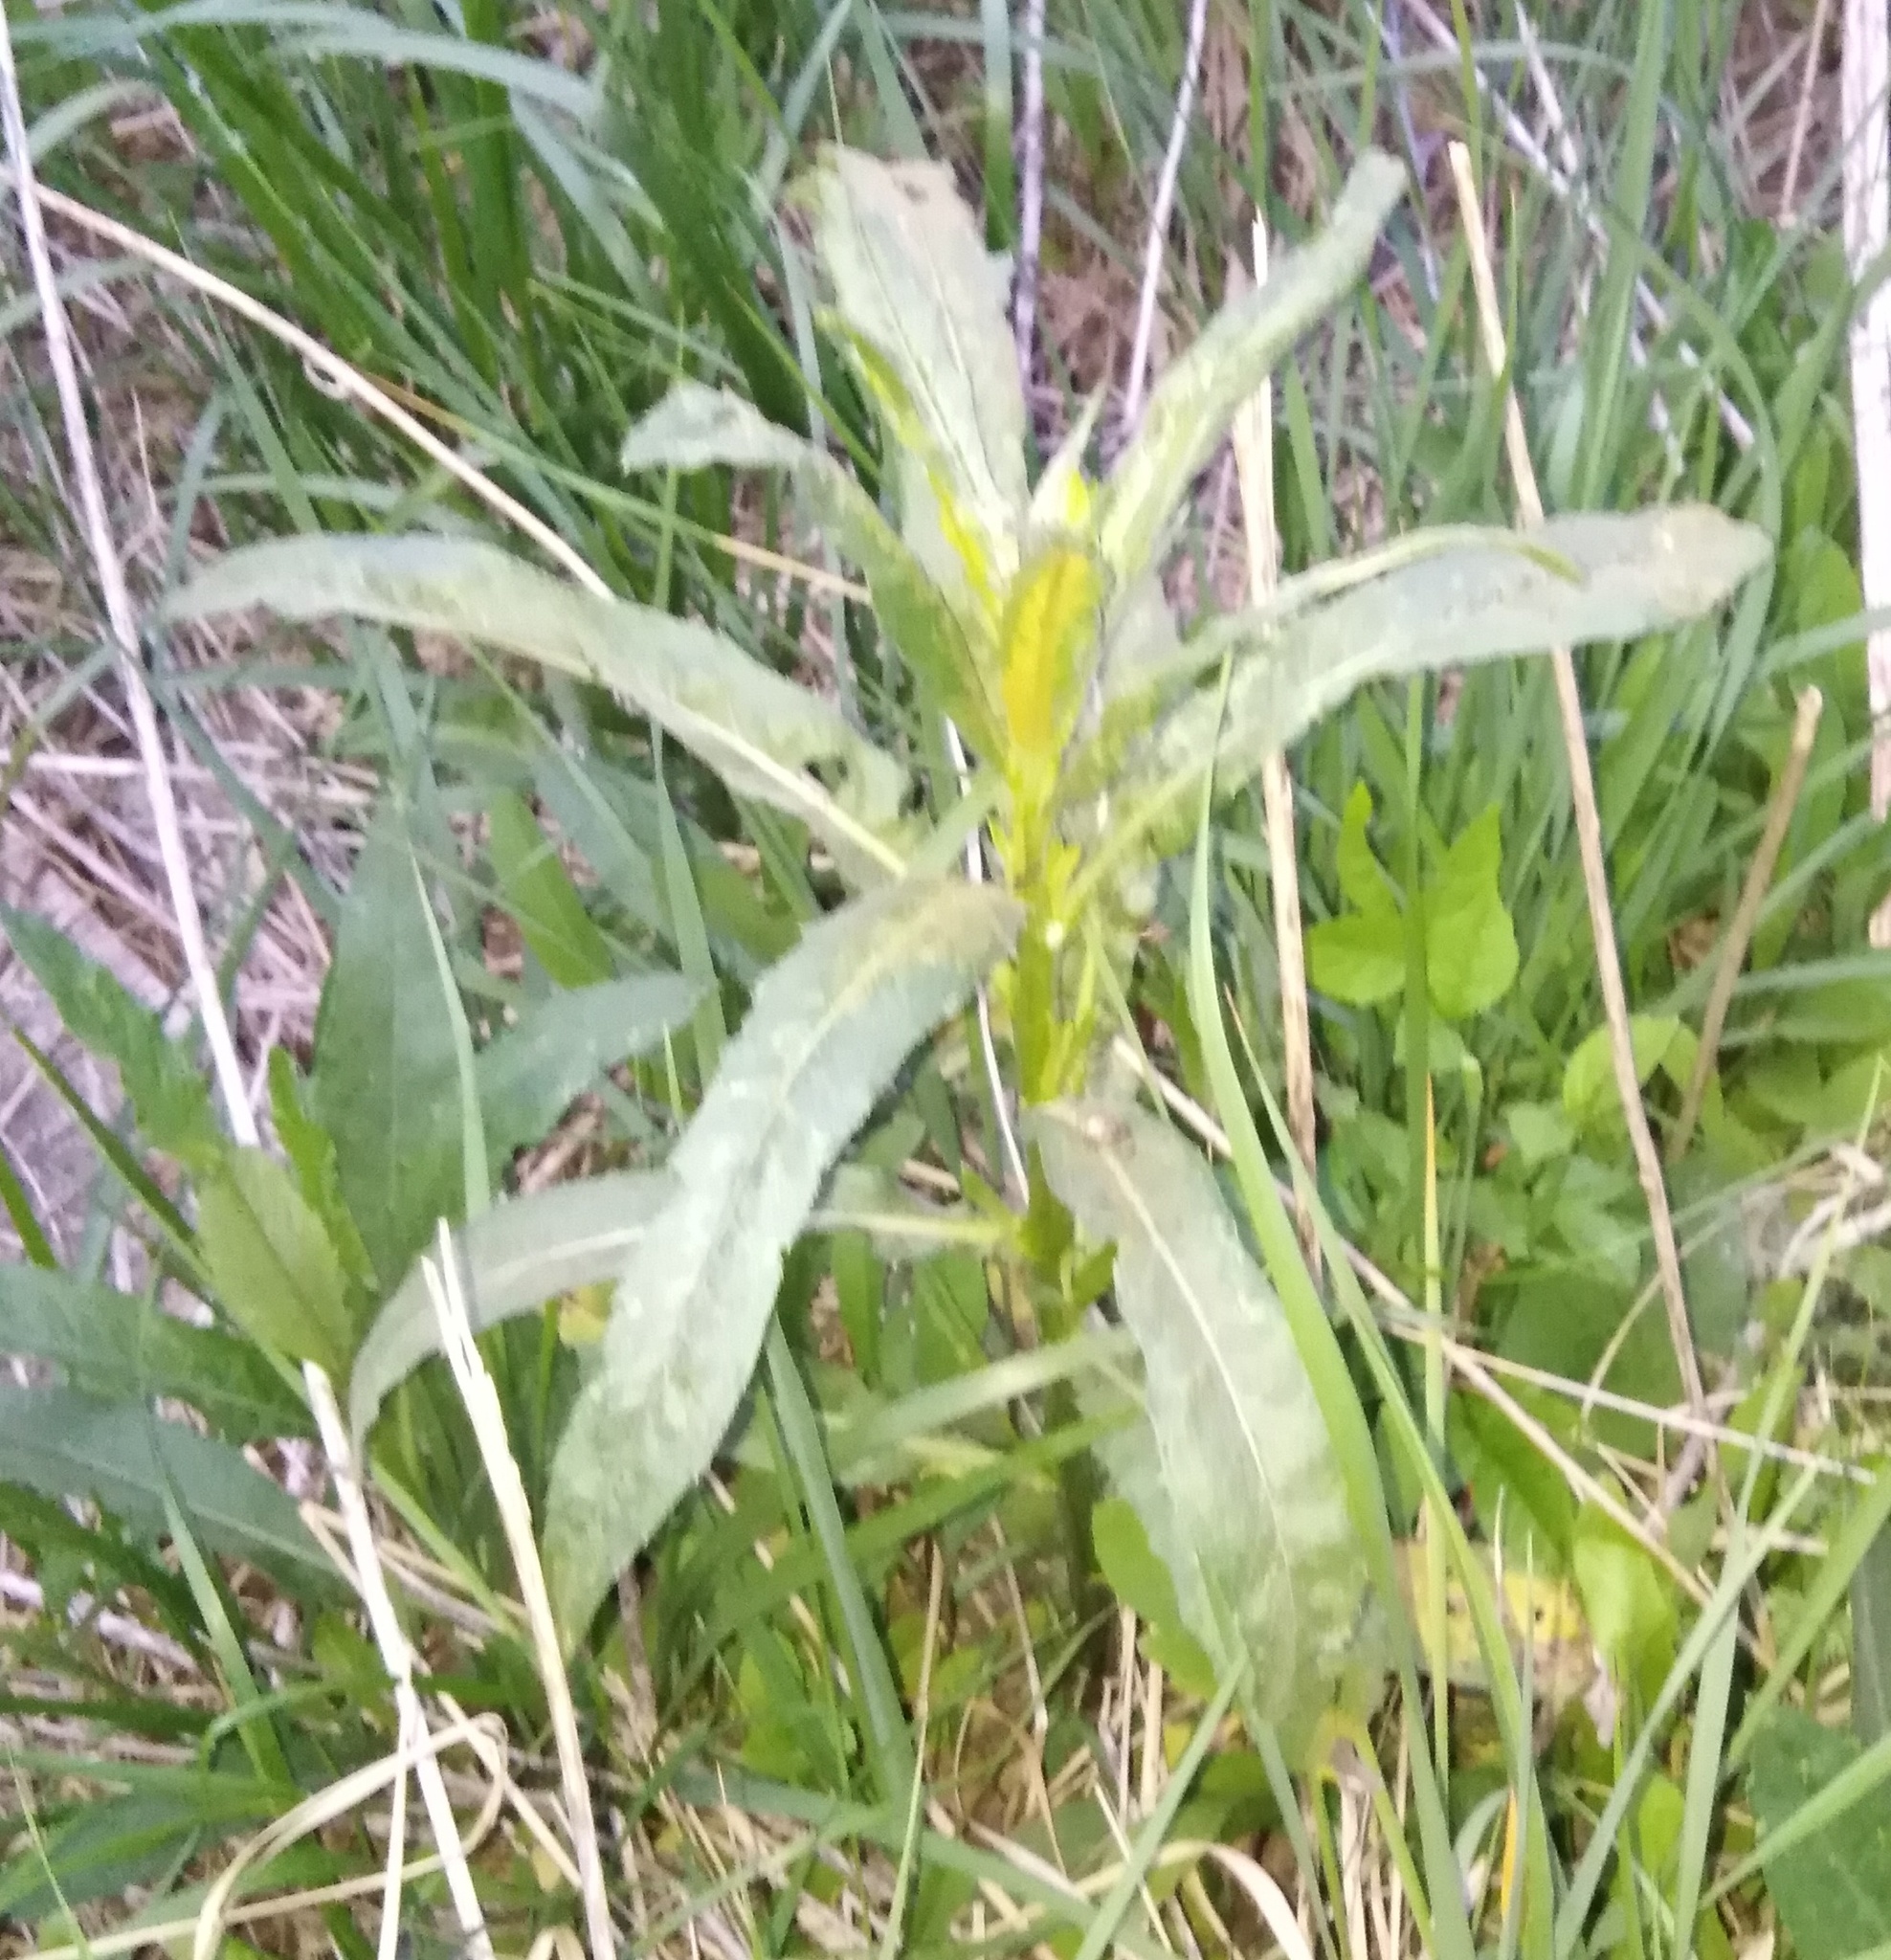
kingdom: Plantae
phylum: Tracheophyta
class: Magnoliopsida
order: Asterales
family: Asteraceae
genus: Cirsium
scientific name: Cirsium arvense
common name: Creeping thistle
